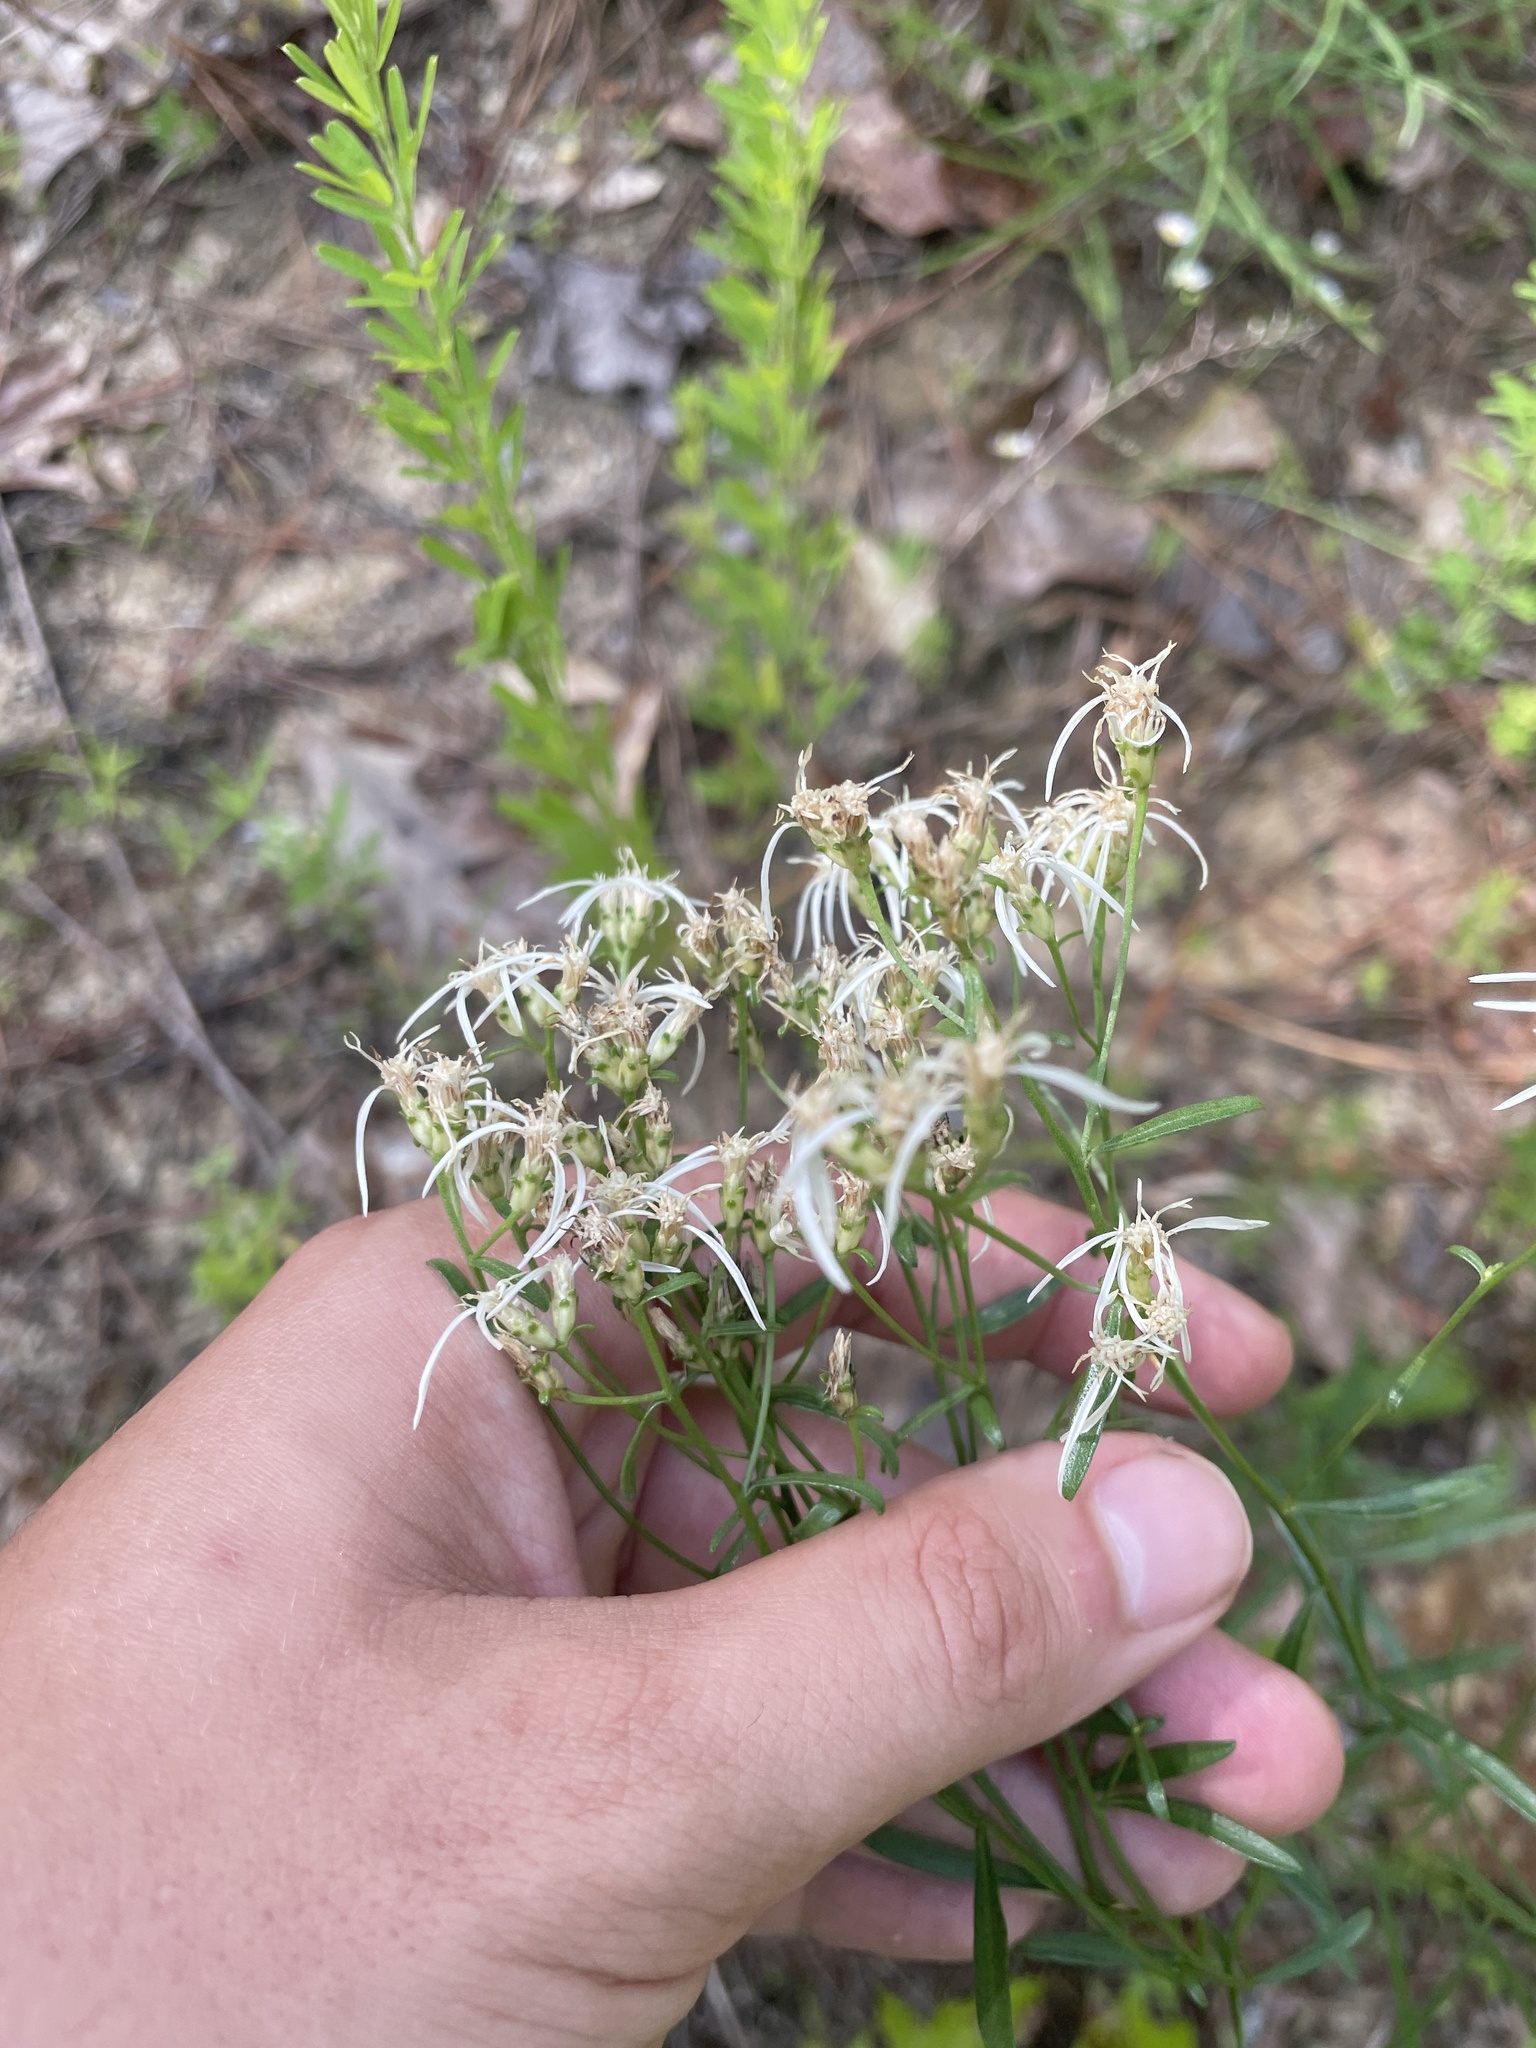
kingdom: Plantae
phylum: Tracheophyta
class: Magnoliopsida
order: Asterales
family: Asteraceae
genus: Sericocarpus
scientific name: Sericocarpus linifolius
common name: Narrow-leaf aster
